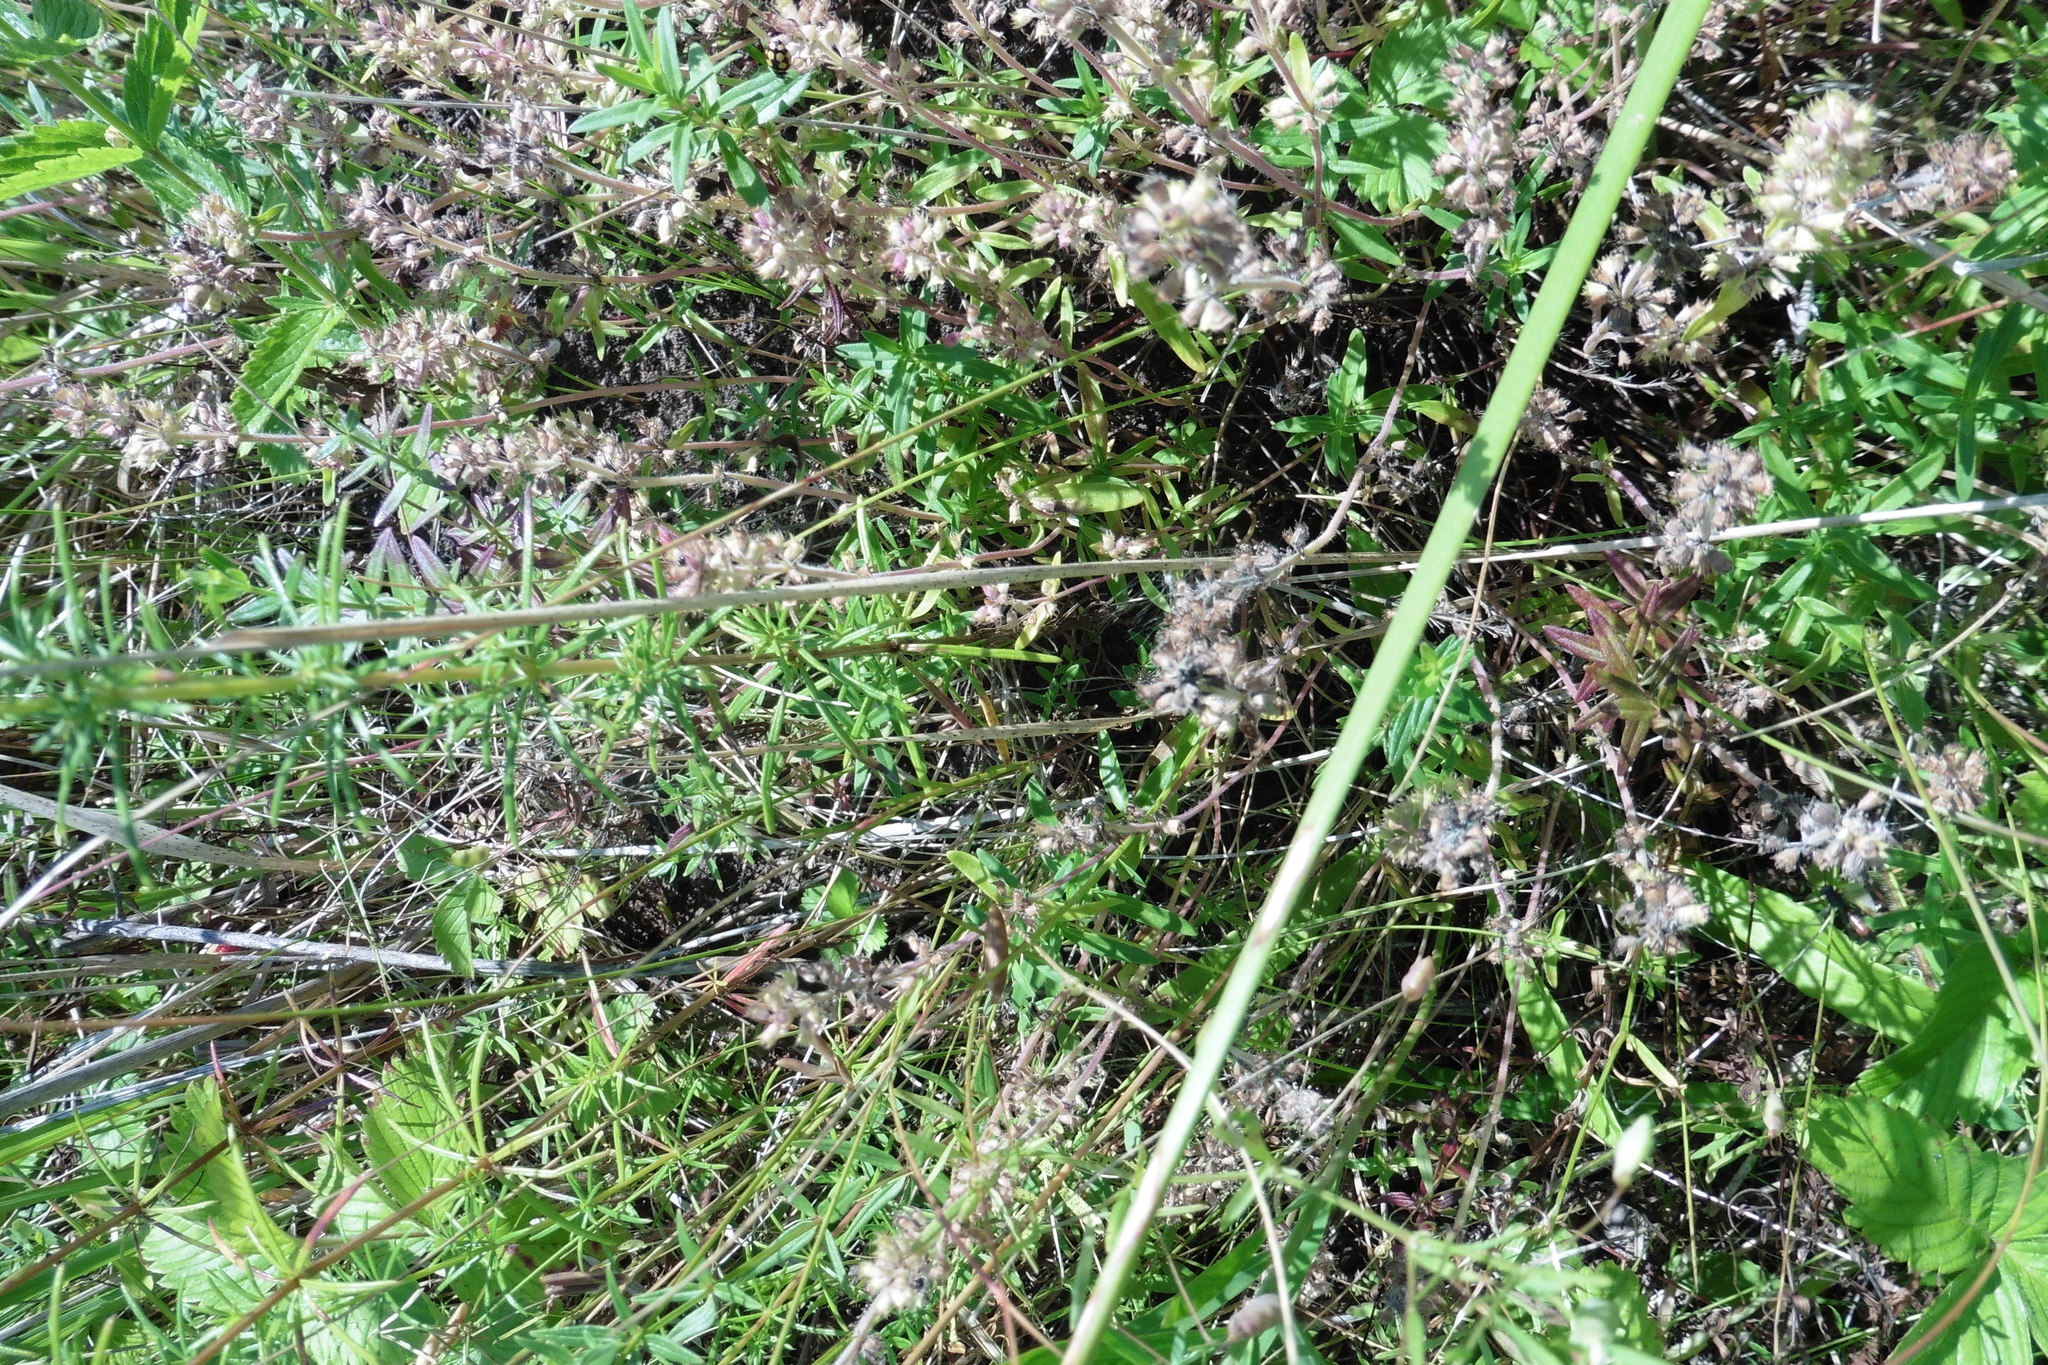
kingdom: Plantae
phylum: Tracheophyta
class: Magnoliopsida
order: Lamiales
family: Lamiaceae
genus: Thymus
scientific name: Thymus pannonicus
